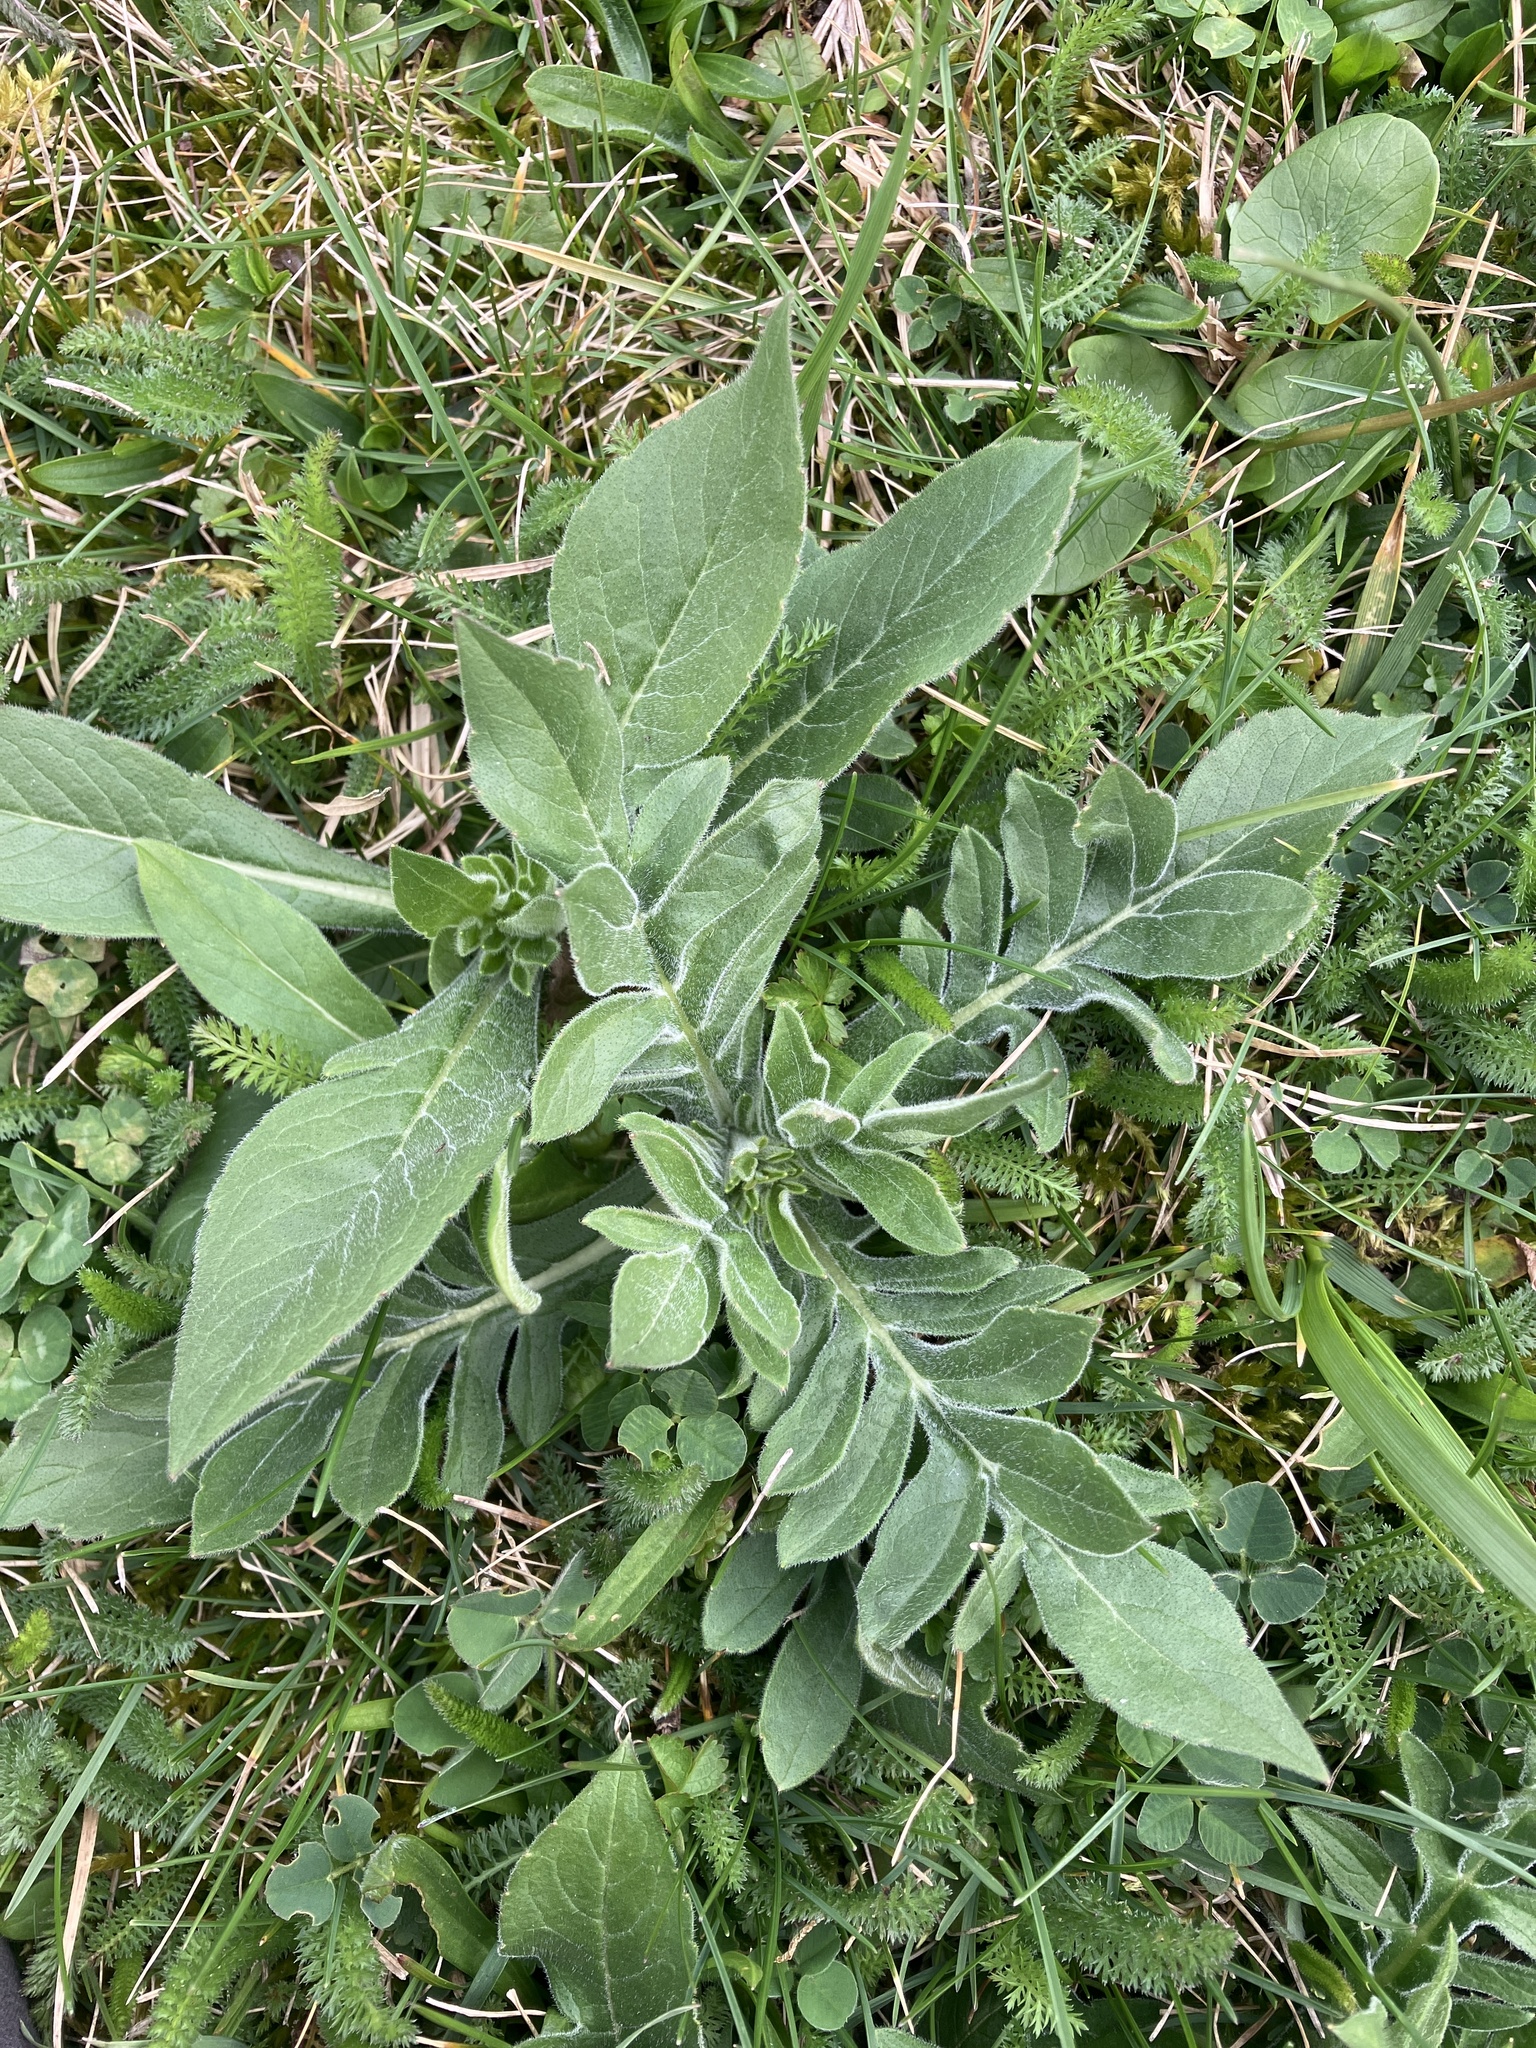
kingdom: Plantae
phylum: Tracheophyta
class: Magnoliopsida
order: Dipsacales
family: Caprifoliaceae
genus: Knautia
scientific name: Knautia arvensis
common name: Field scabiosa
